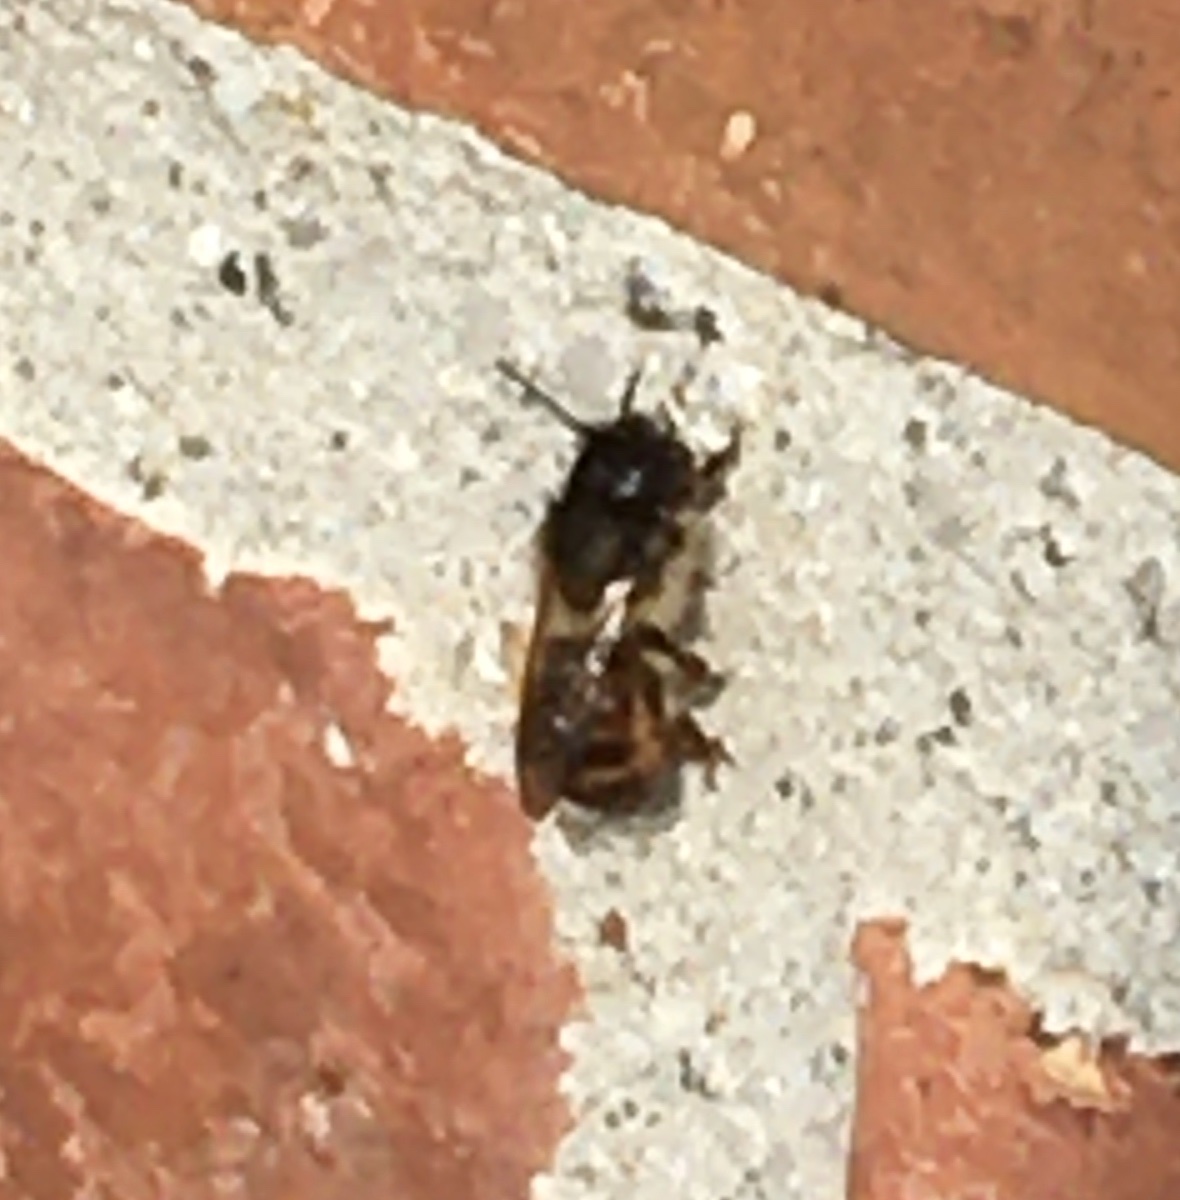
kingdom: Animalia
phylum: Arthropoda
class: Insecta
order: Hymenoptera
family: Megachilidae
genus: Osmia
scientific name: Osmia bicornis
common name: Red mason bee
